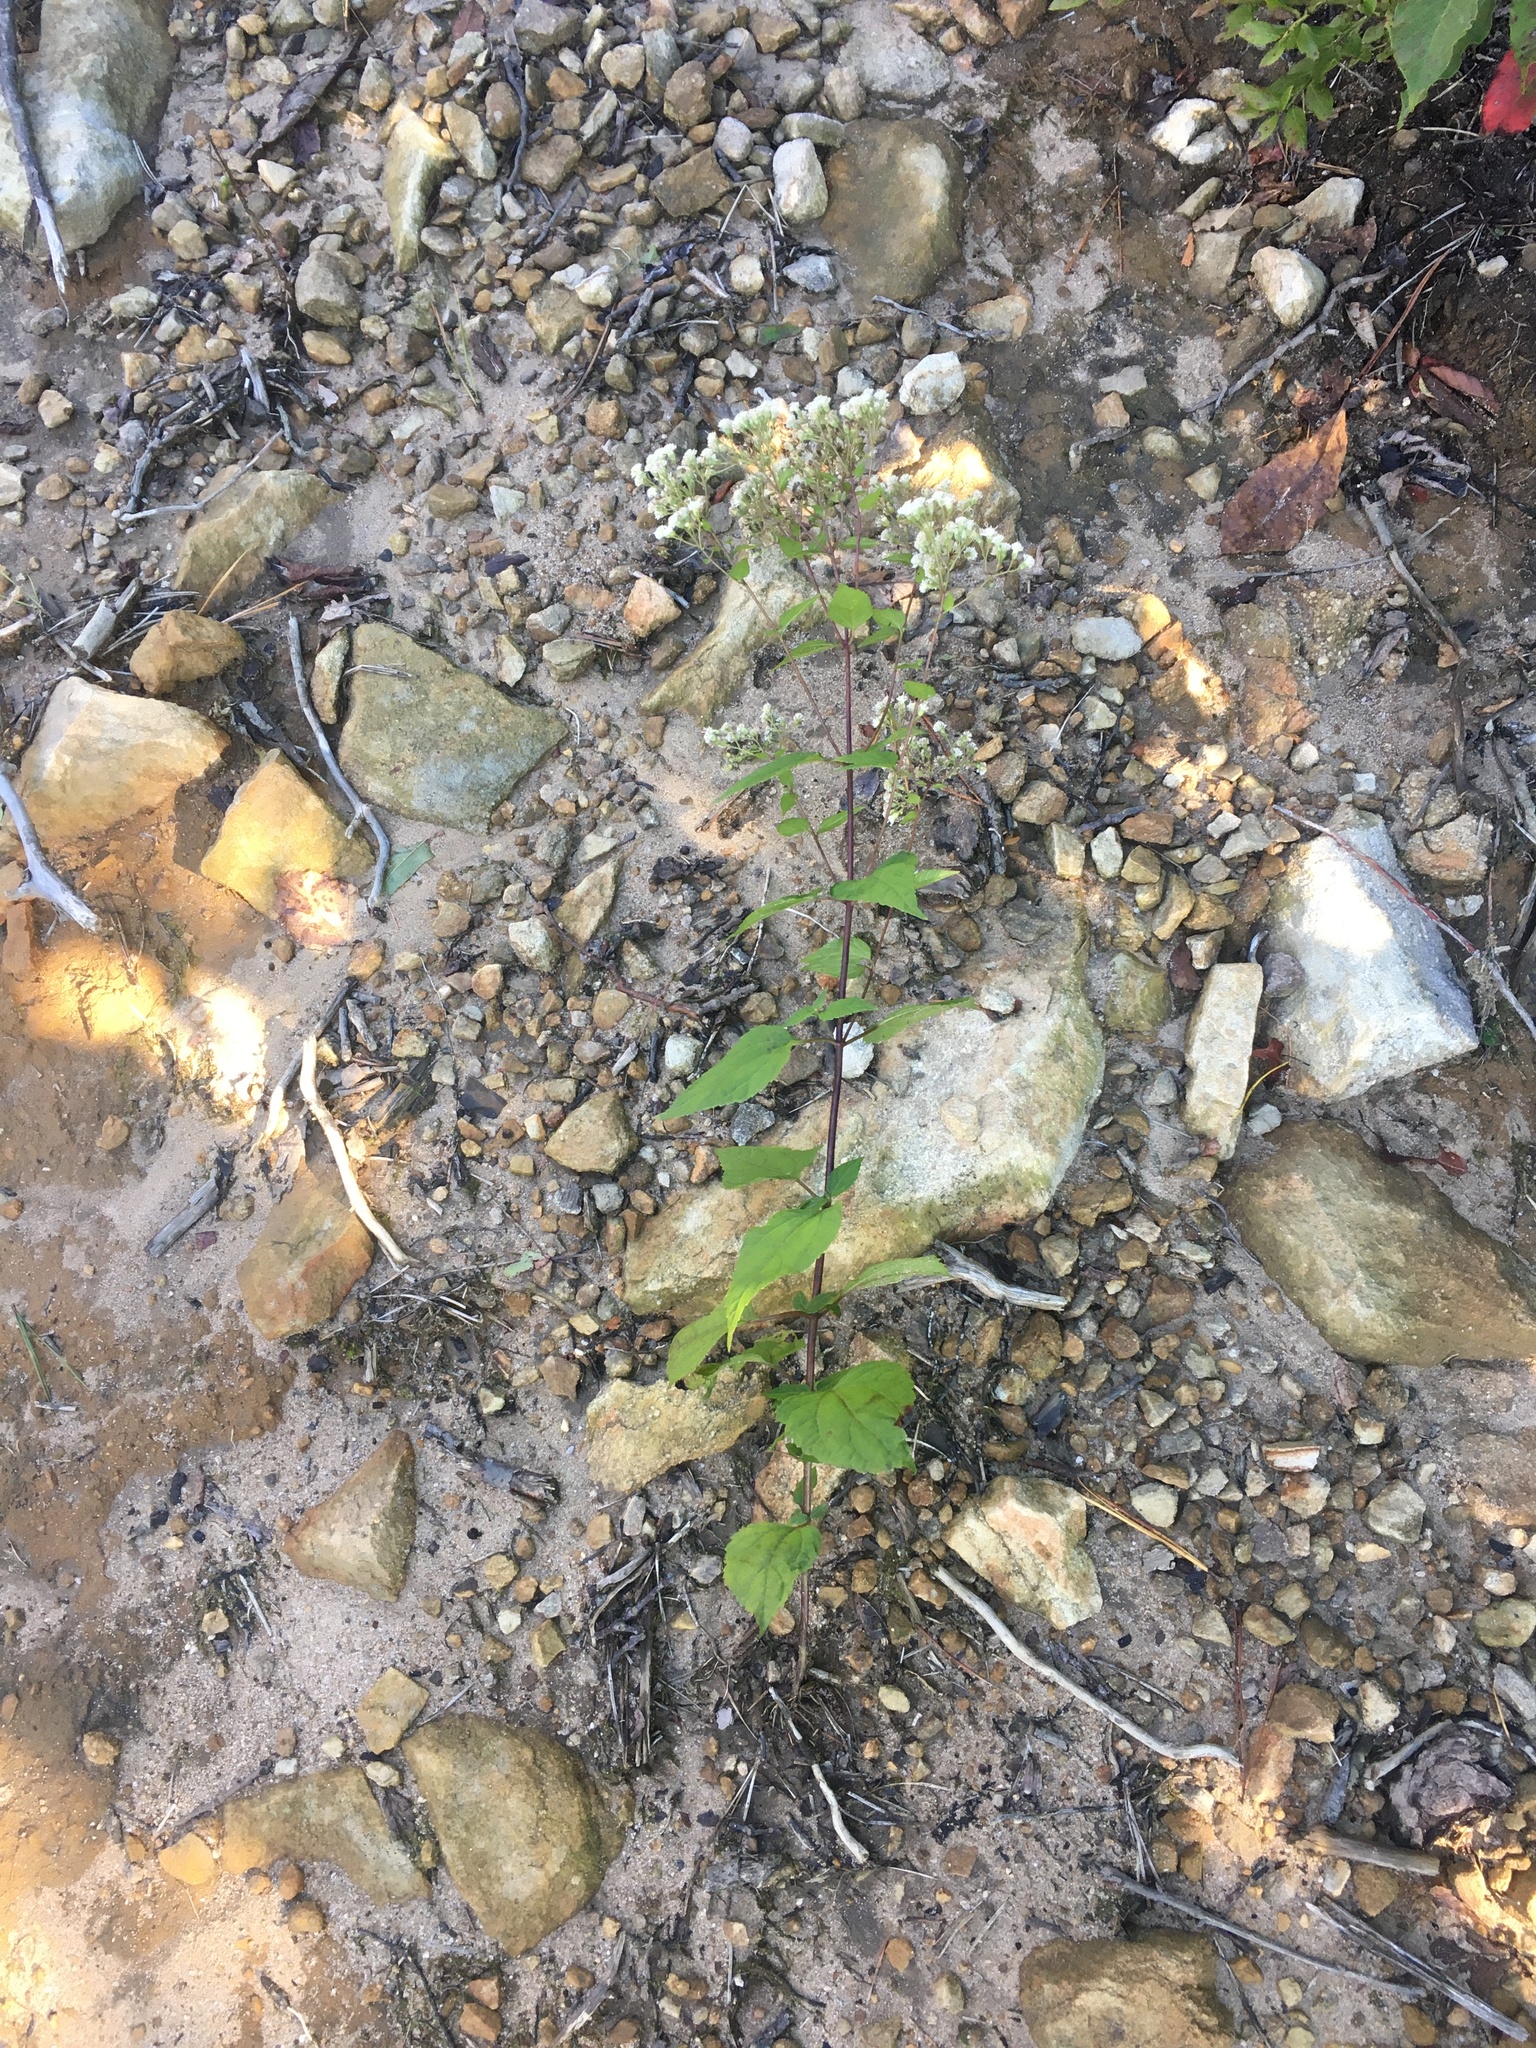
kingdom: Plantae
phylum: Tracheophyta
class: Magnoliopsida
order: Asterales
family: Asteraceae
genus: Ageratina
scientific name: Ageratina altissima
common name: White snakeroot
